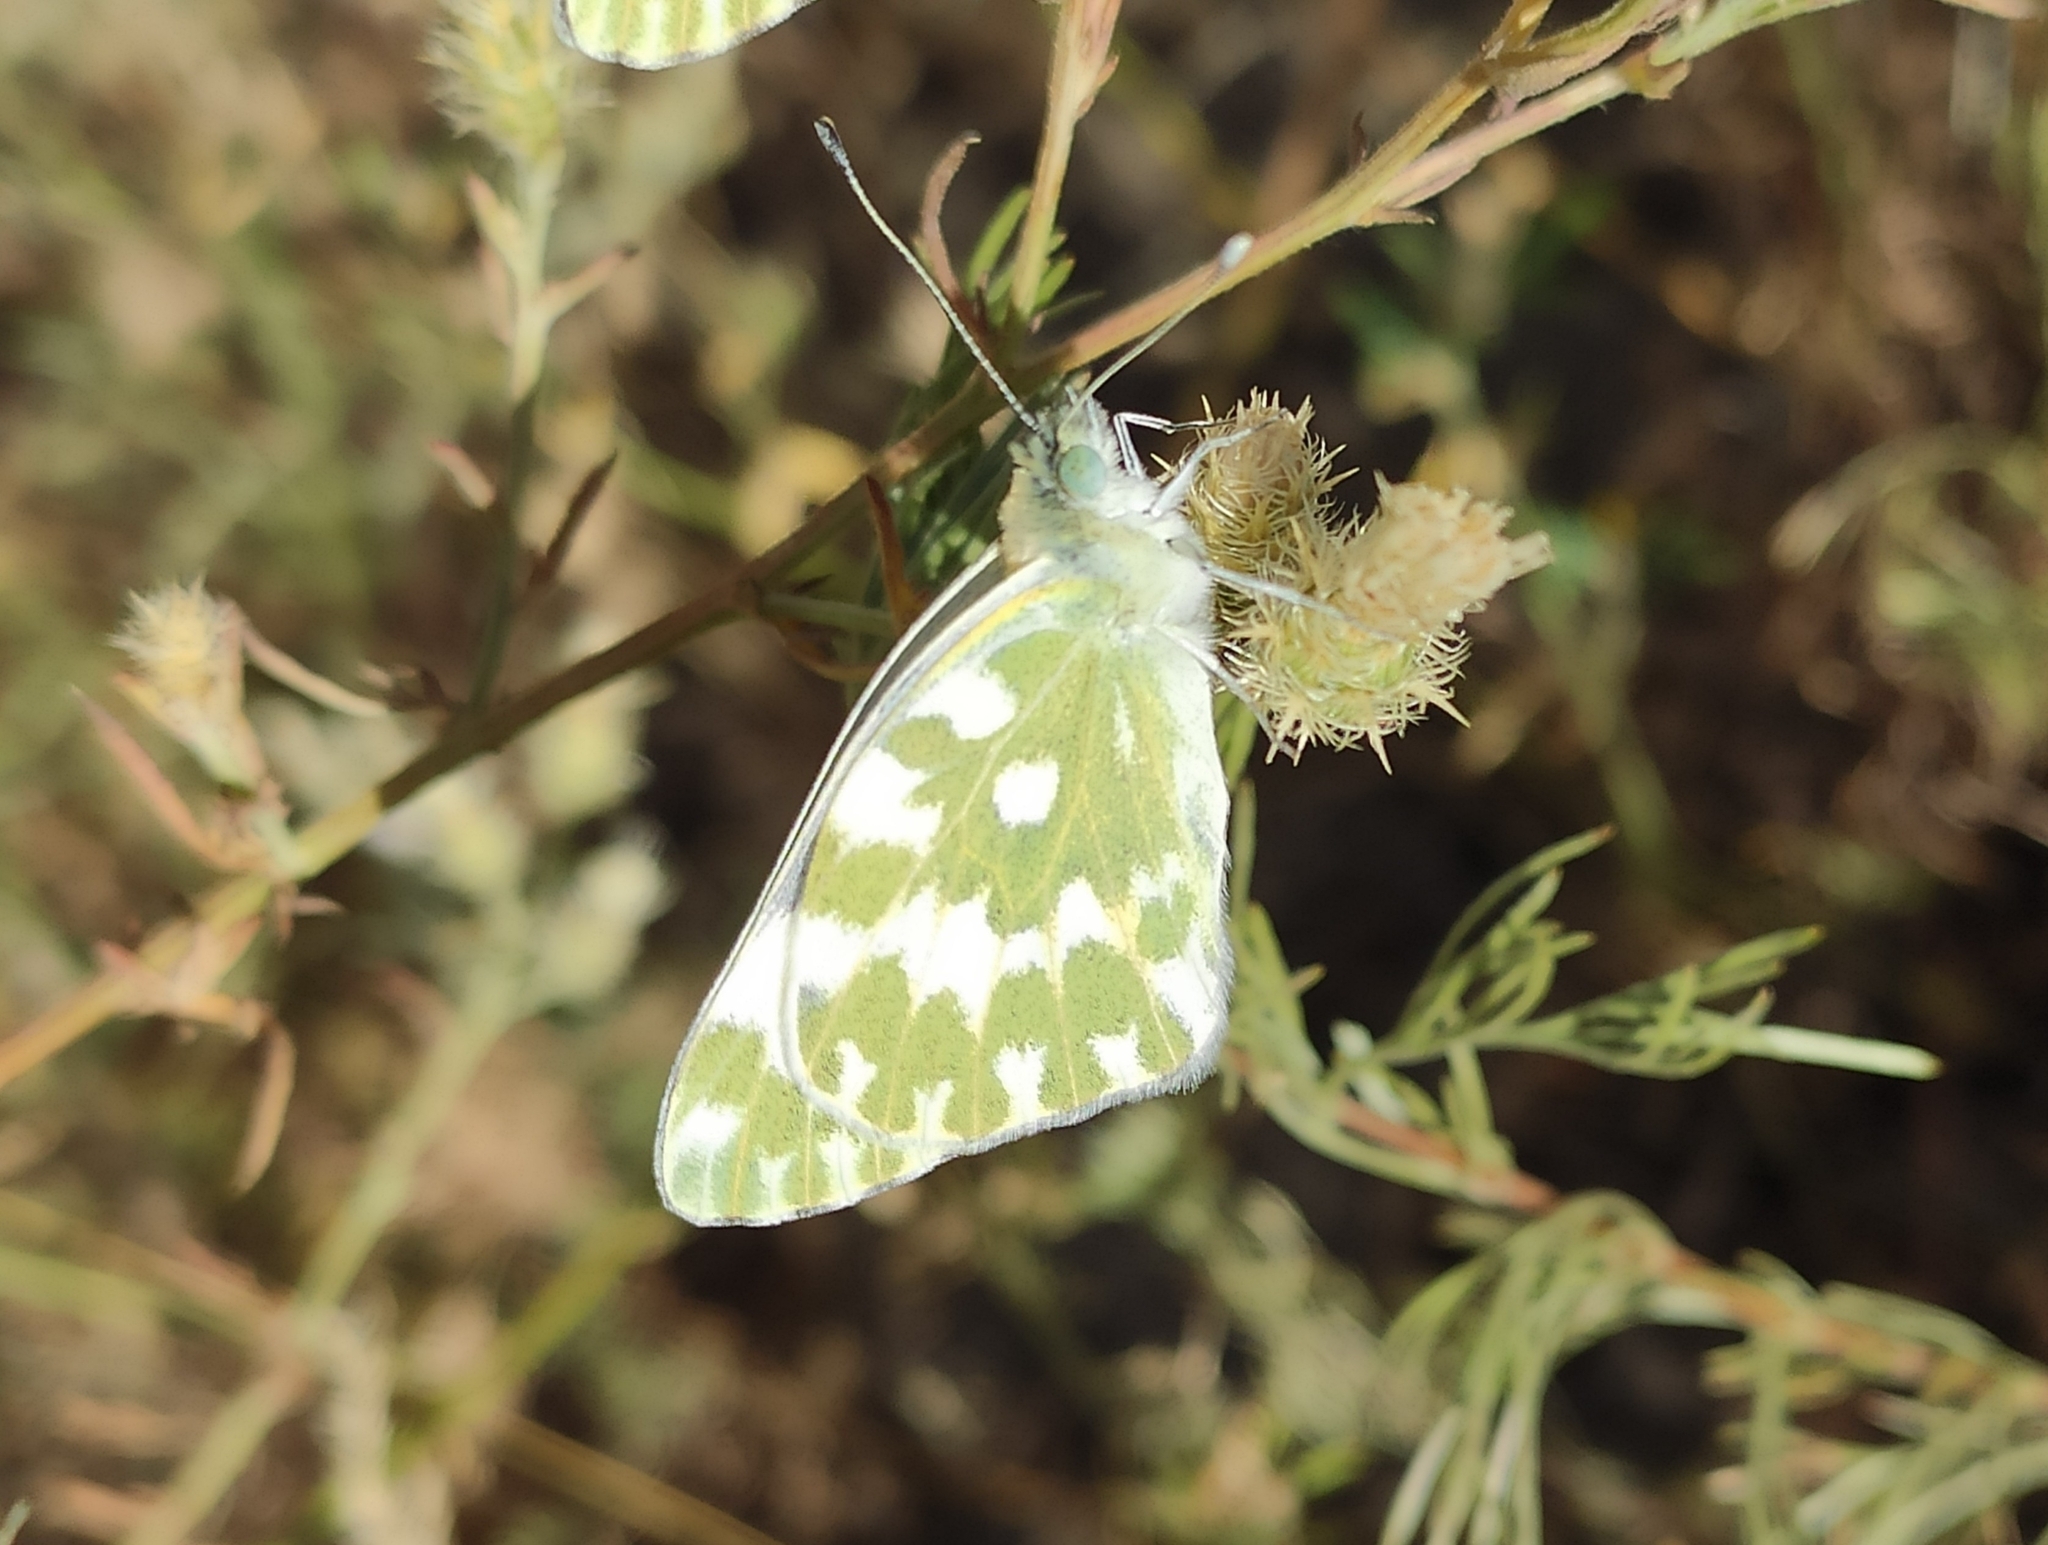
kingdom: Animalia
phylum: Arthropoda
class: Insecta
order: Lepidoptera
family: Pieridae
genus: Pontia
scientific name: Pontia edusa
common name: Eastern bath white
